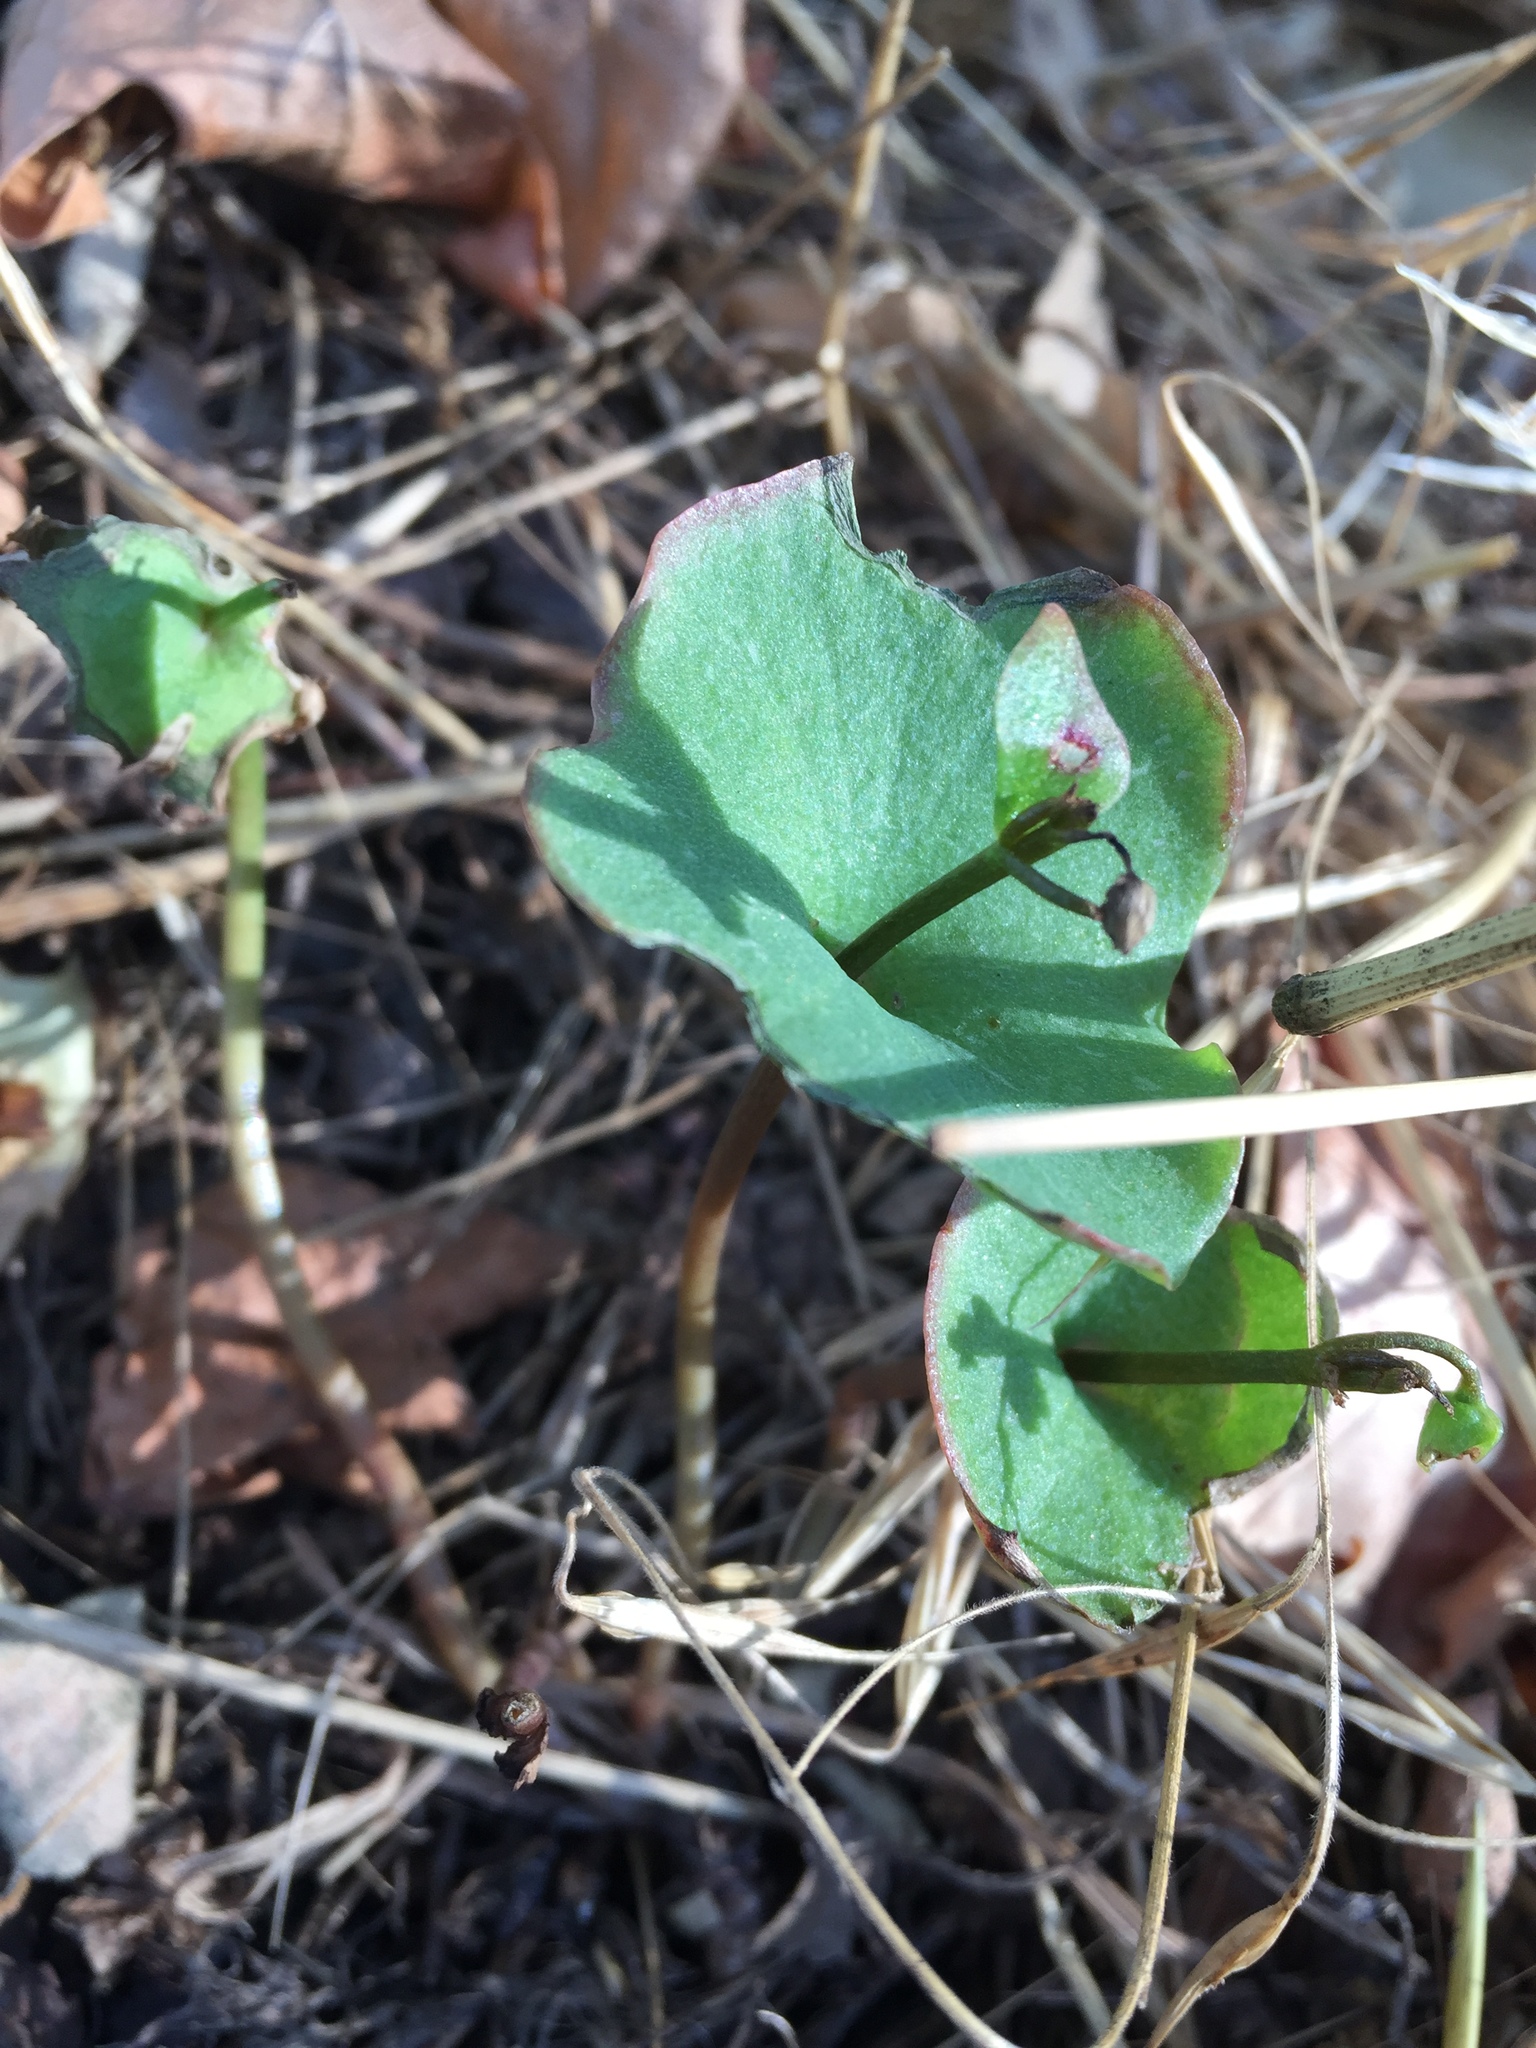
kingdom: Plantae
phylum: Tracheophyta
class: Magnoliopsida
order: Caryophyllales
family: Montiaceae
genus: Claytonia
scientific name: Claytonia perfoliata
